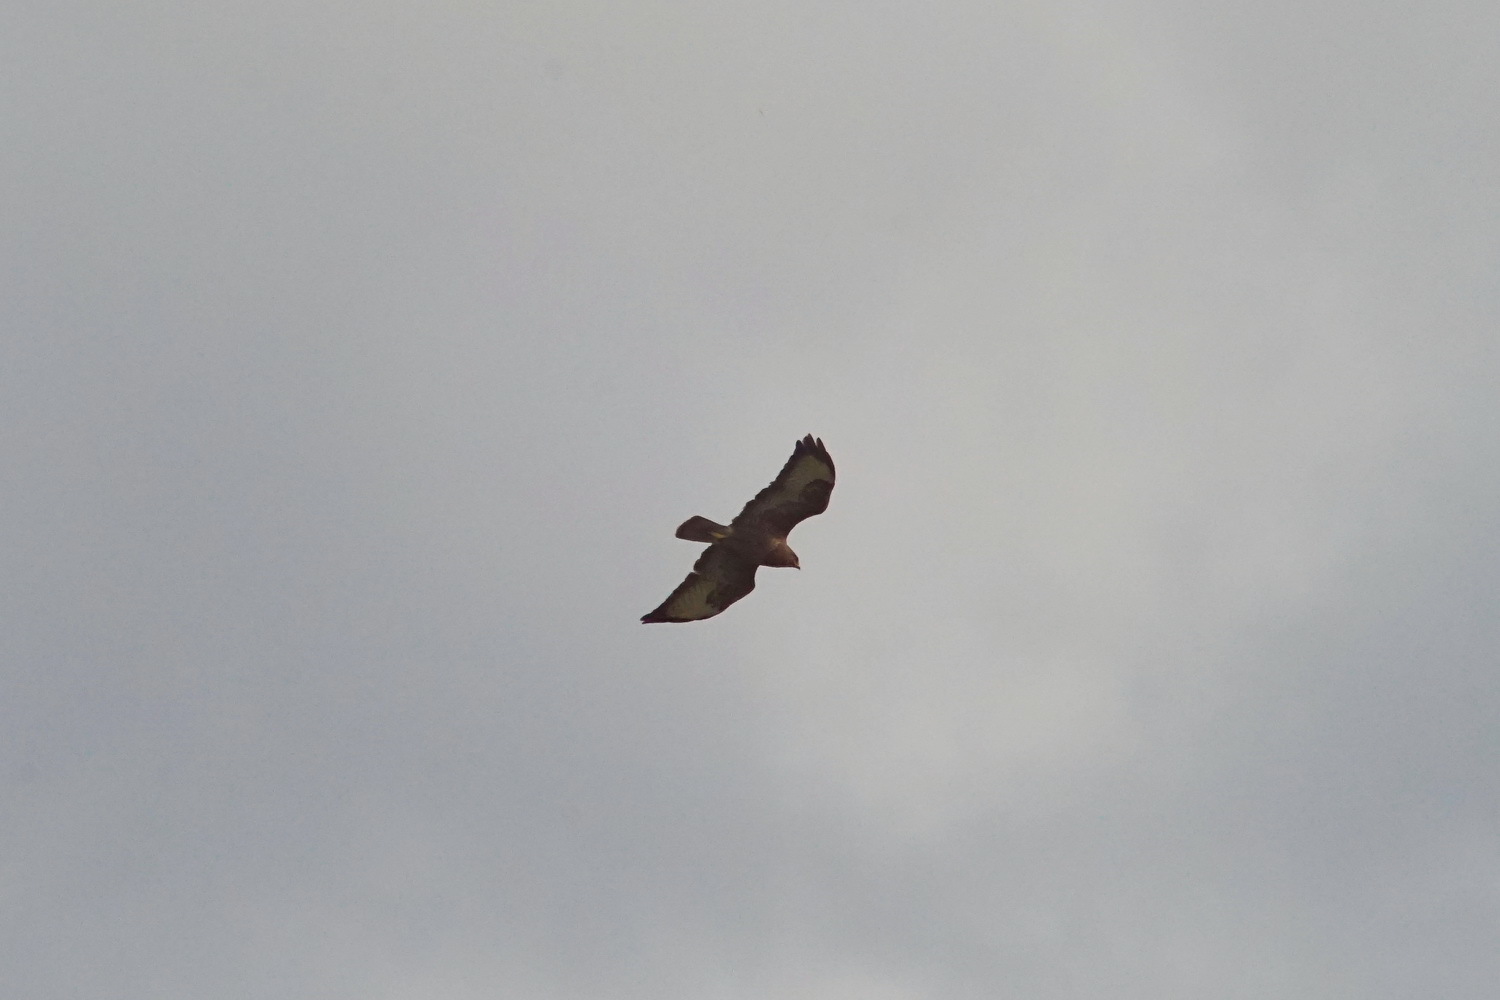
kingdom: Animalia
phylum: Chordata
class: Aves
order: Accipitriformes
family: Accipitridae
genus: Buteo
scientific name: Buteo buteo
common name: Common buzzard
